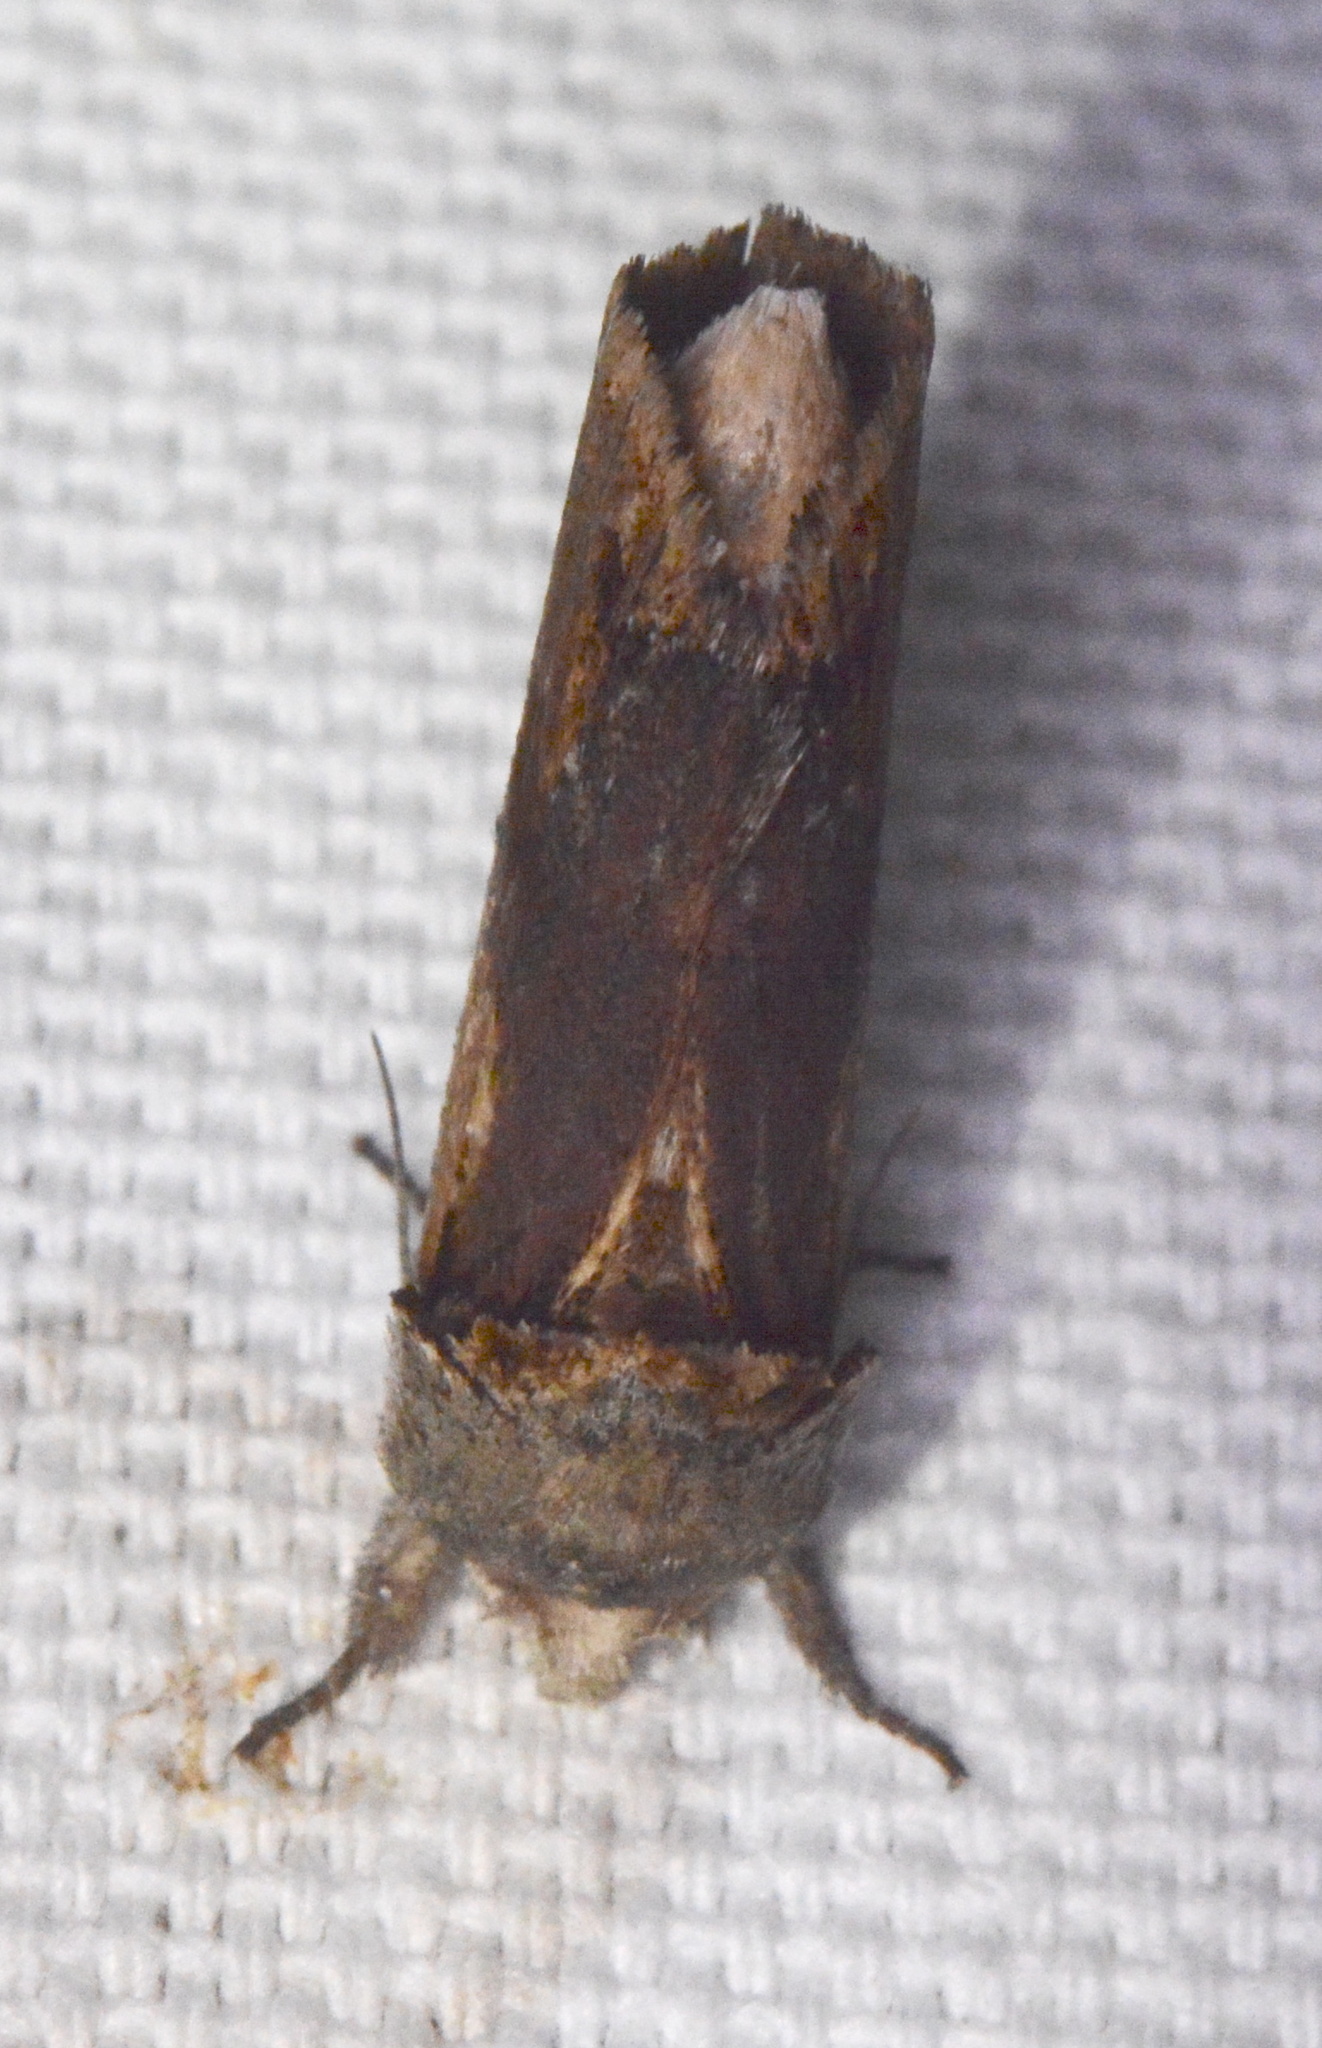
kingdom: Animalia
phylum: Arthropoda
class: Insecta
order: Lepidoptera
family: Notodontidae
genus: Schizura
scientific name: Schizura
